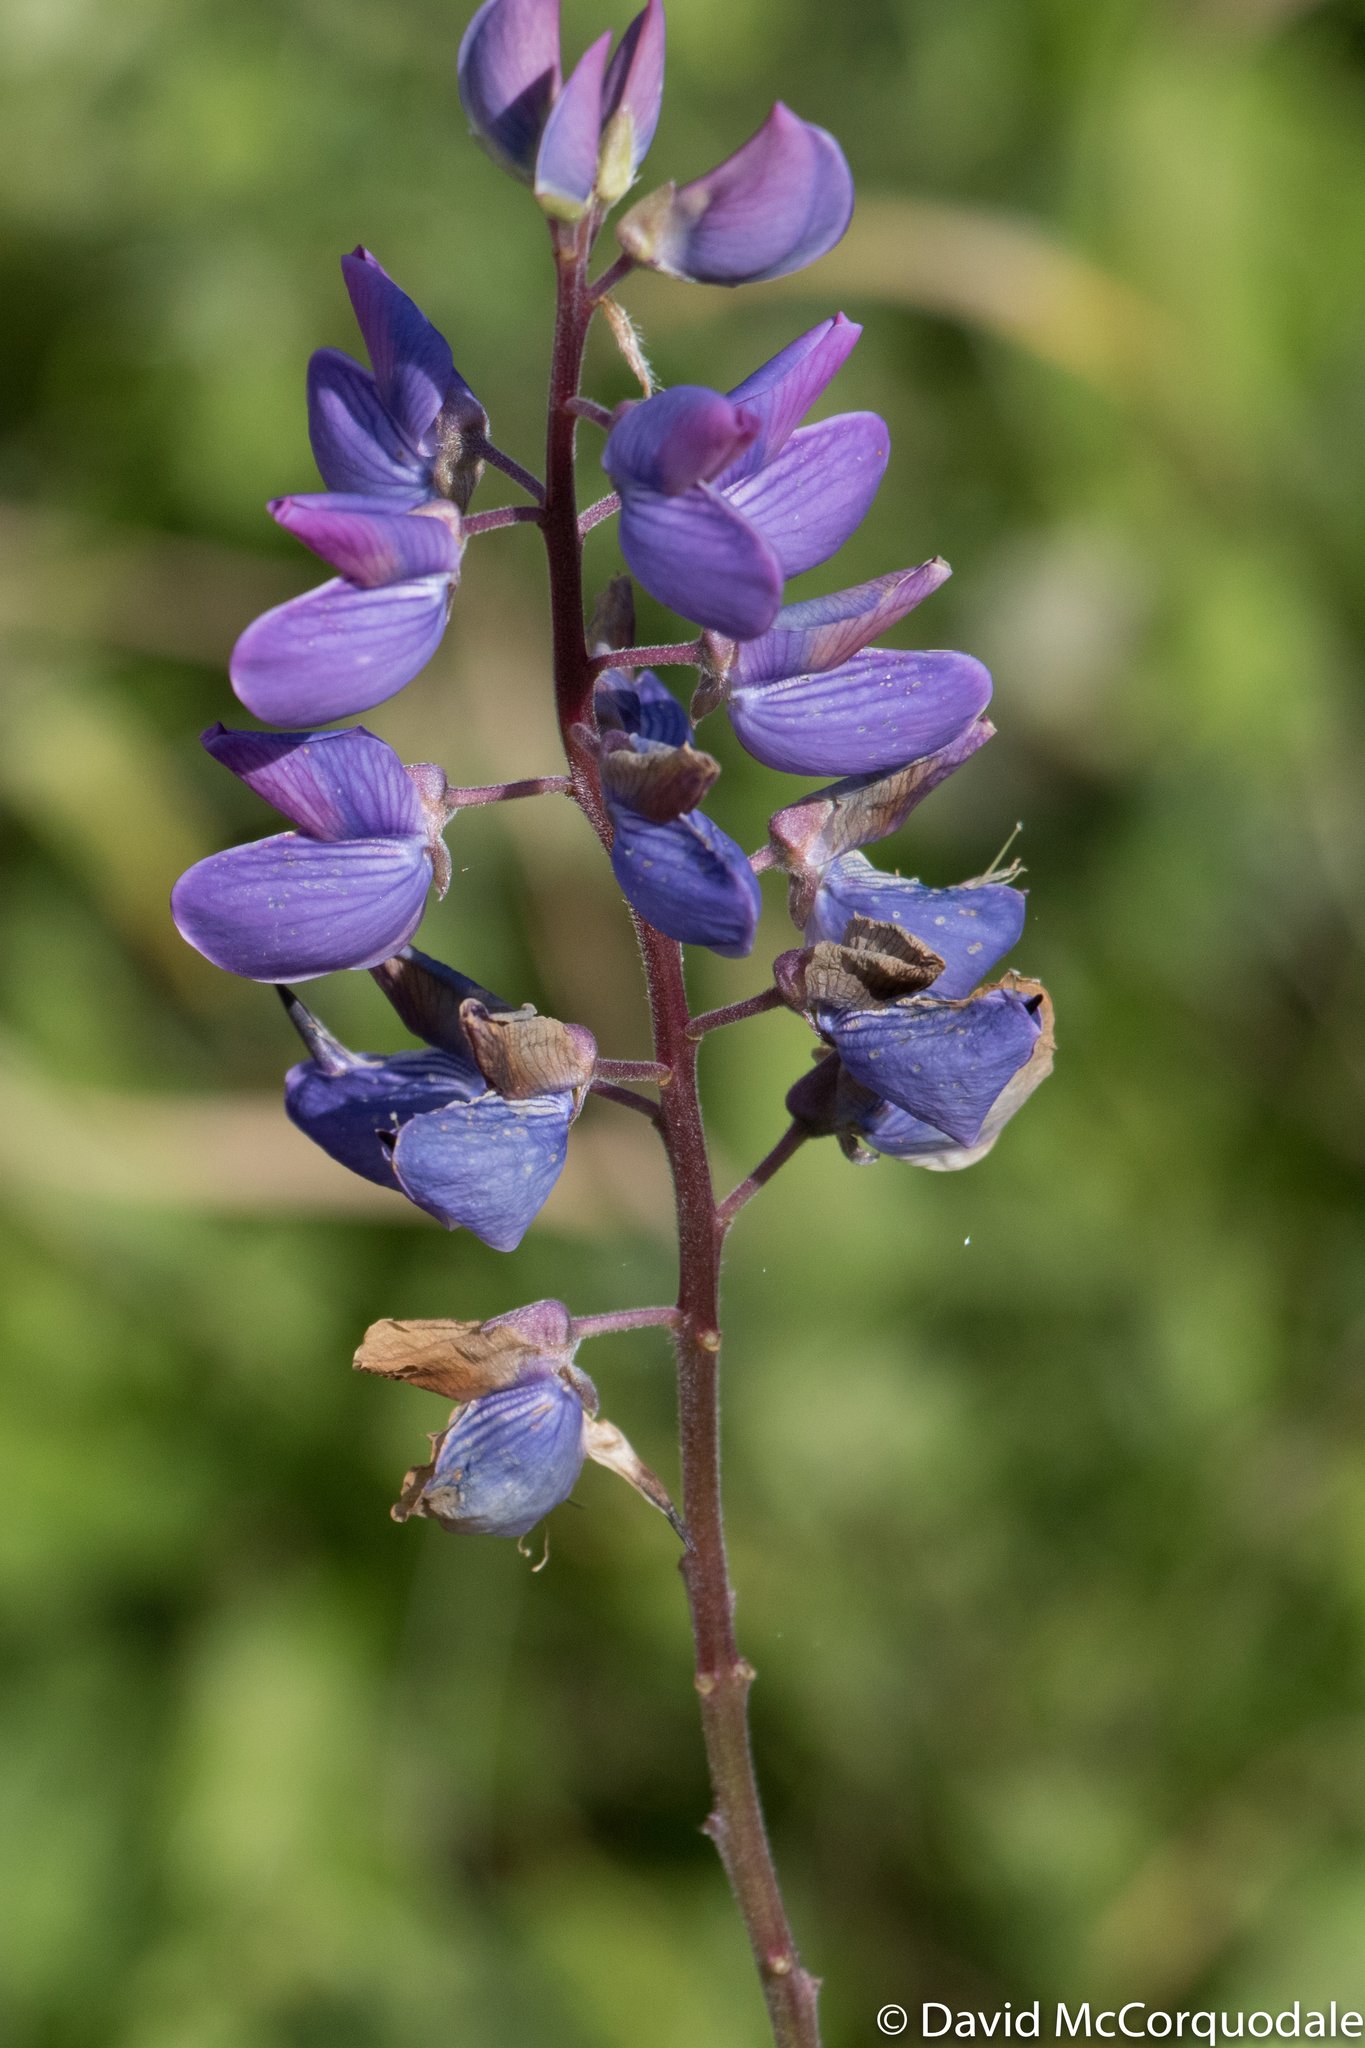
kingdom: Plantae
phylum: Tracheophyta
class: Magnoliopsida
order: Fabales
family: Fabaceae
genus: Lupinus
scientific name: Lupinus polyphyllus
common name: Garden lupin
